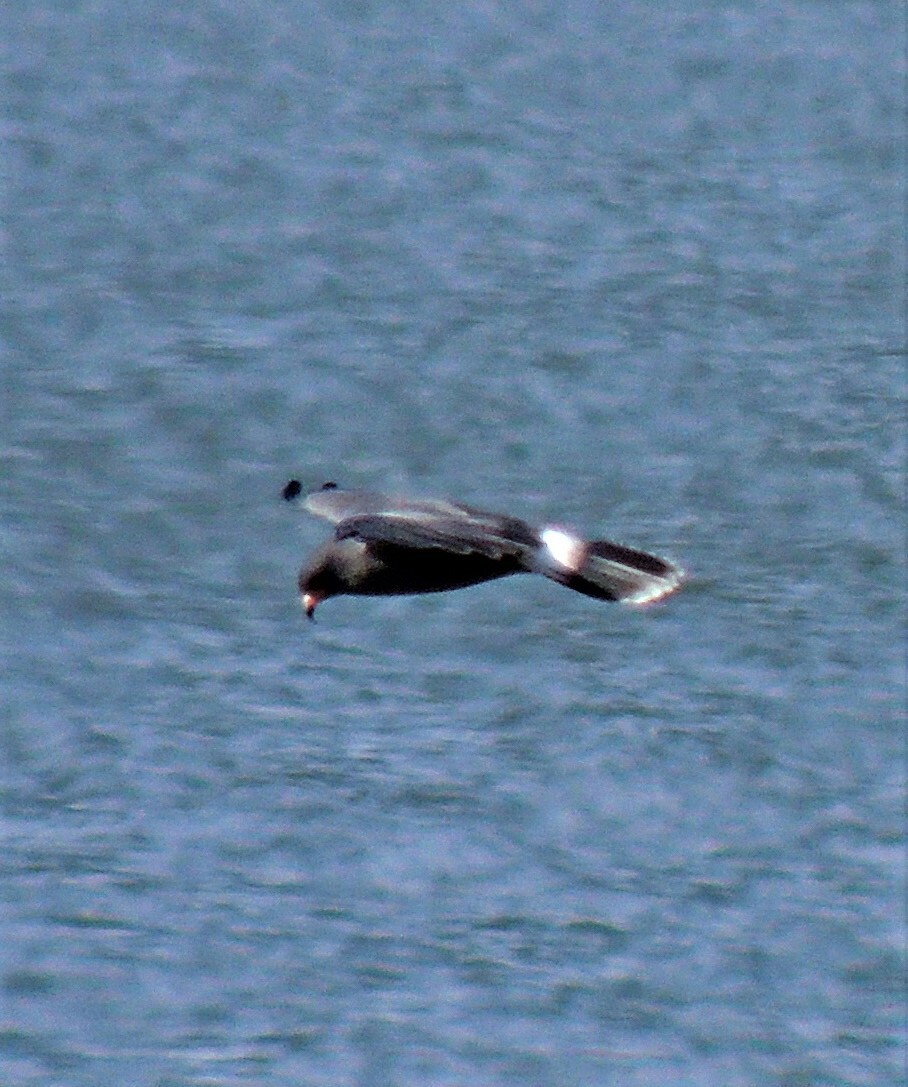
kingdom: Animalia
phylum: Chordata
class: Aves
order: Accipitriformes
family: Accipitridae
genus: Rostrhamus
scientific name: Rostrhamus sociabilis
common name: Snail kite
